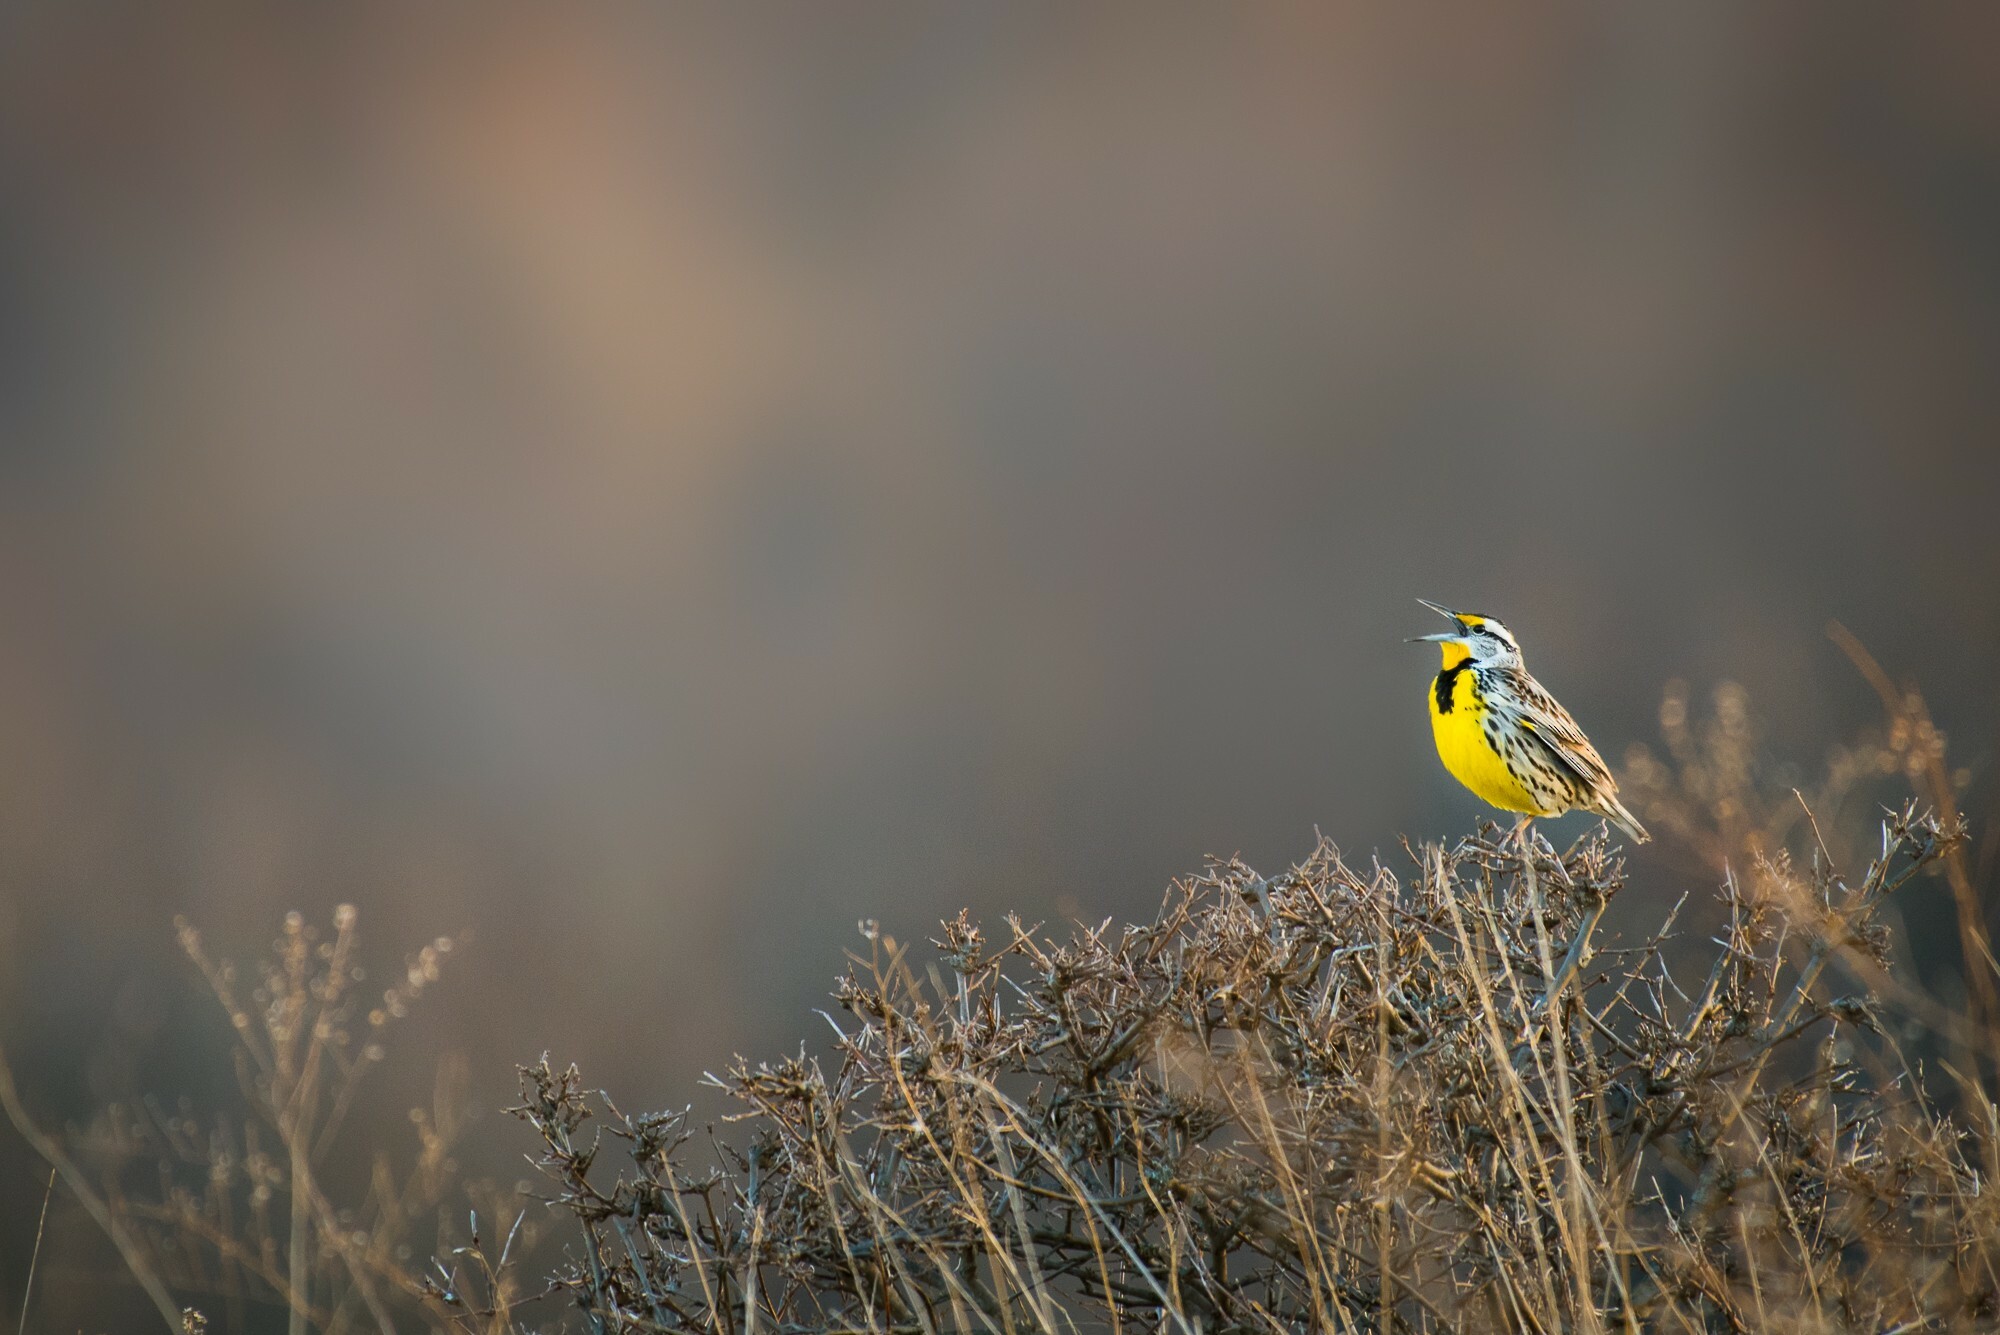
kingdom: Animalia
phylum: Chordata
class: Aves
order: Passeriformes
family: Icteridae
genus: Sturnella
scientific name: Sturnella magna
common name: Eastern meadowlark
